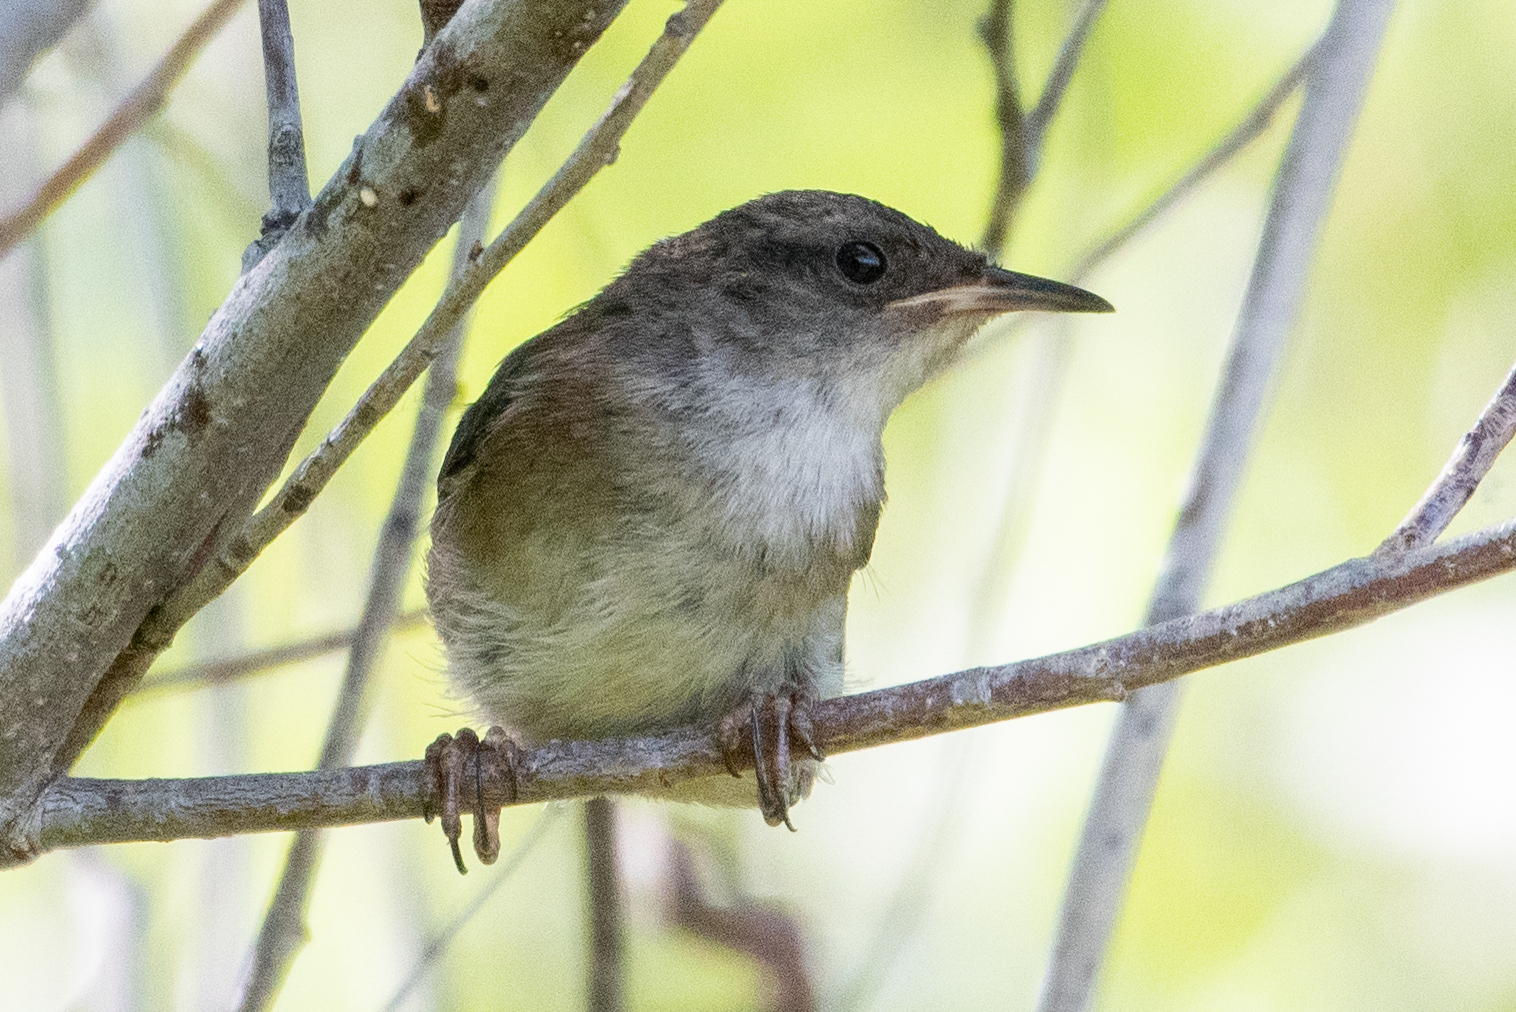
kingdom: Animalia
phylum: Chordata
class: Aves
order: Passeriformes
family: Troglodytidae
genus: Cistothorus
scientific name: Cistothorus palustris
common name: Marsh wren
